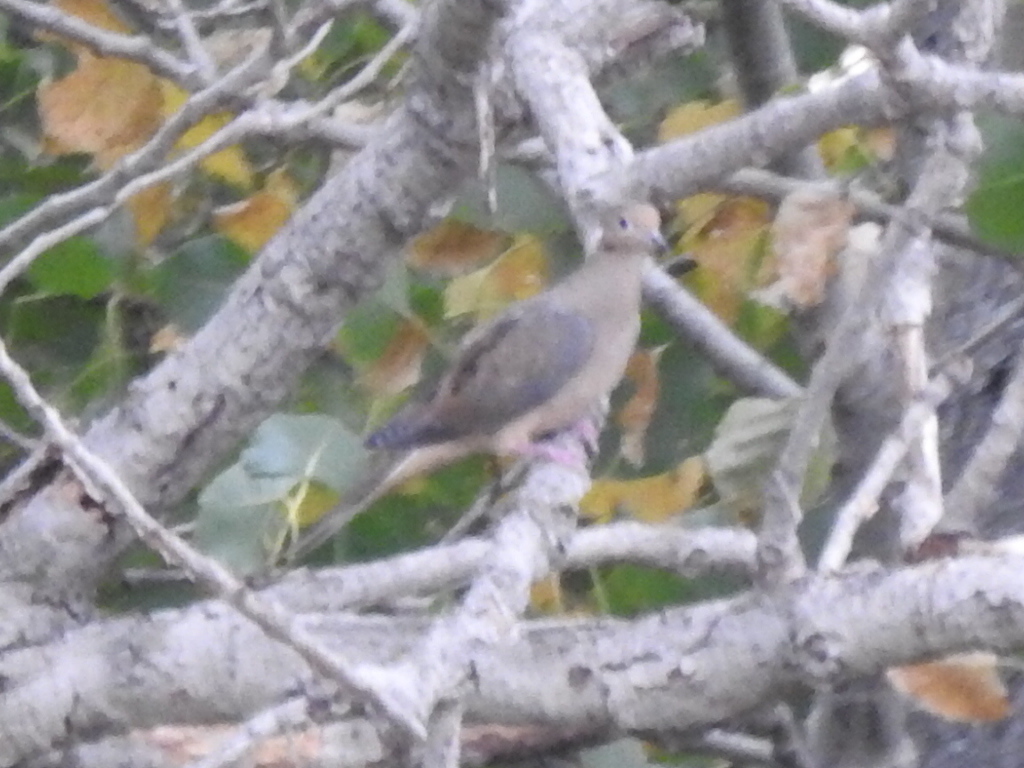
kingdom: Animalia
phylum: Chordata
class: Aves
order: Columbiformes
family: Columbidae
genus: Zenaida
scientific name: Zenaida macroura
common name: Mourning dove
